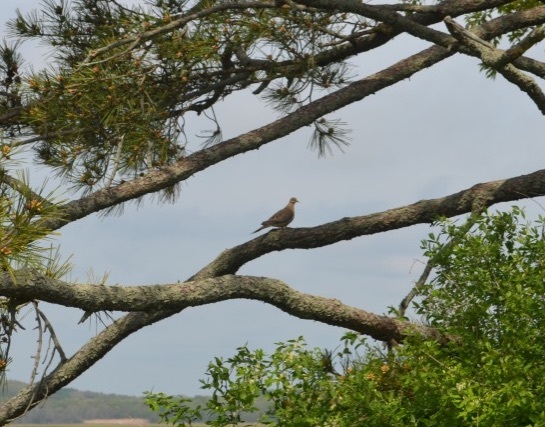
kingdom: Animalia
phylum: Chordata
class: Aves
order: Columbiformes
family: Columbidae
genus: Zenaida
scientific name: Zenaida macroura
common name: Mourning dove
